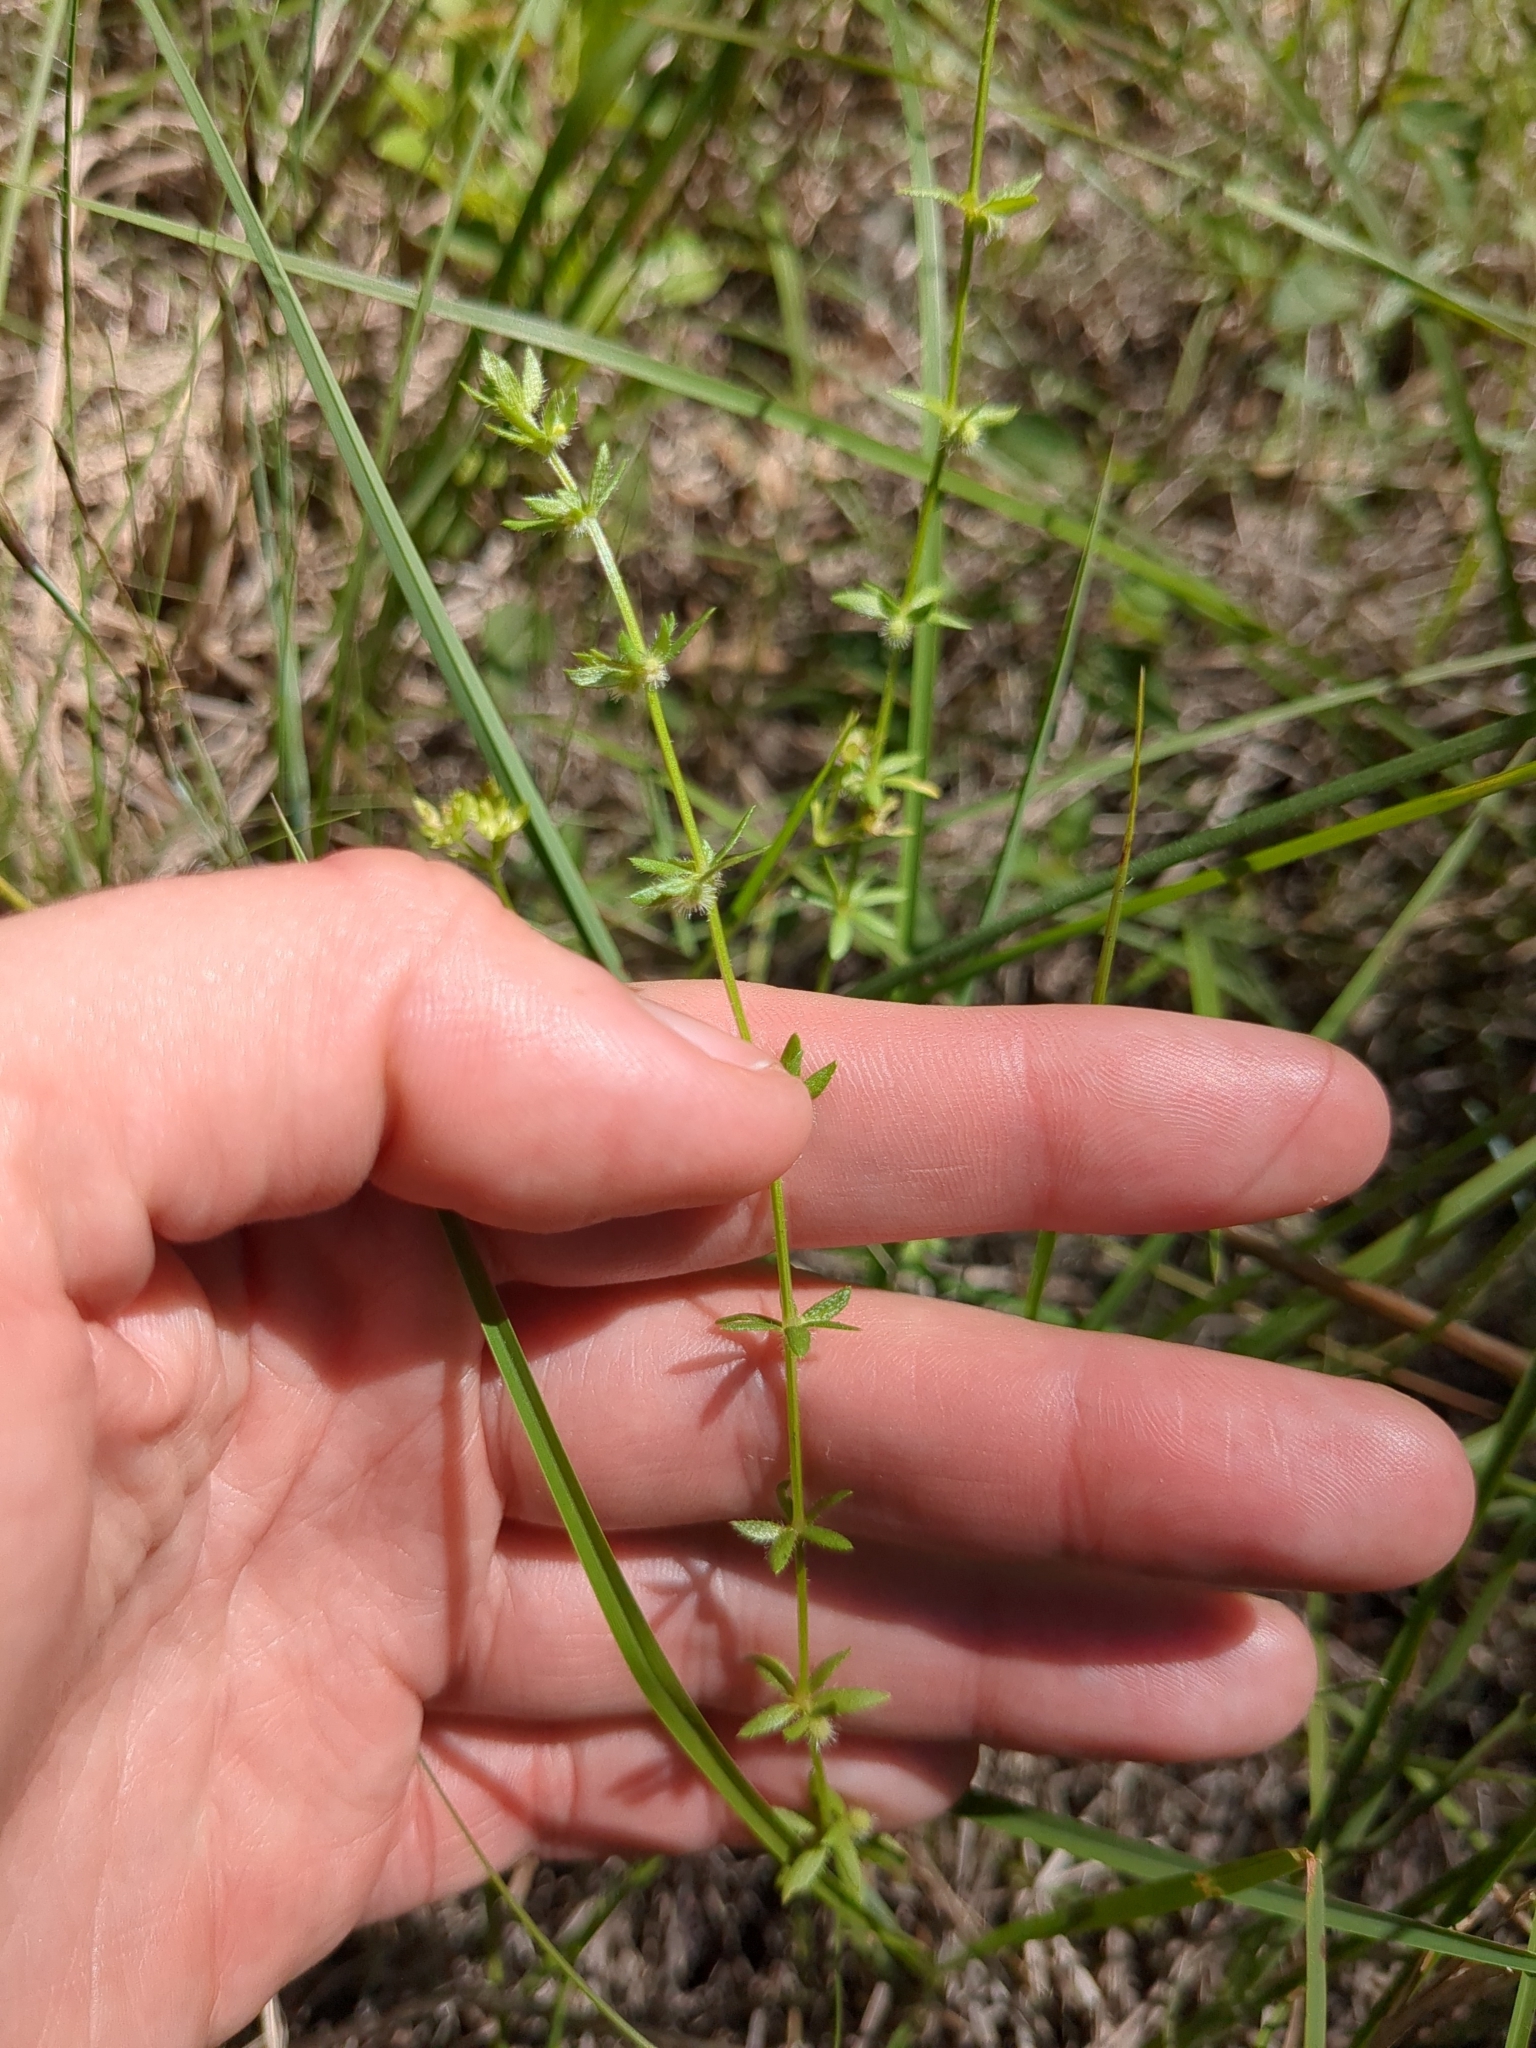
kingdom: Plantae
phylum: Tracheophyta
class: Magnoliopsida
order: Gentianales
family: Rubiaceae
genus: Galium
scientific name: Galium virgatum
